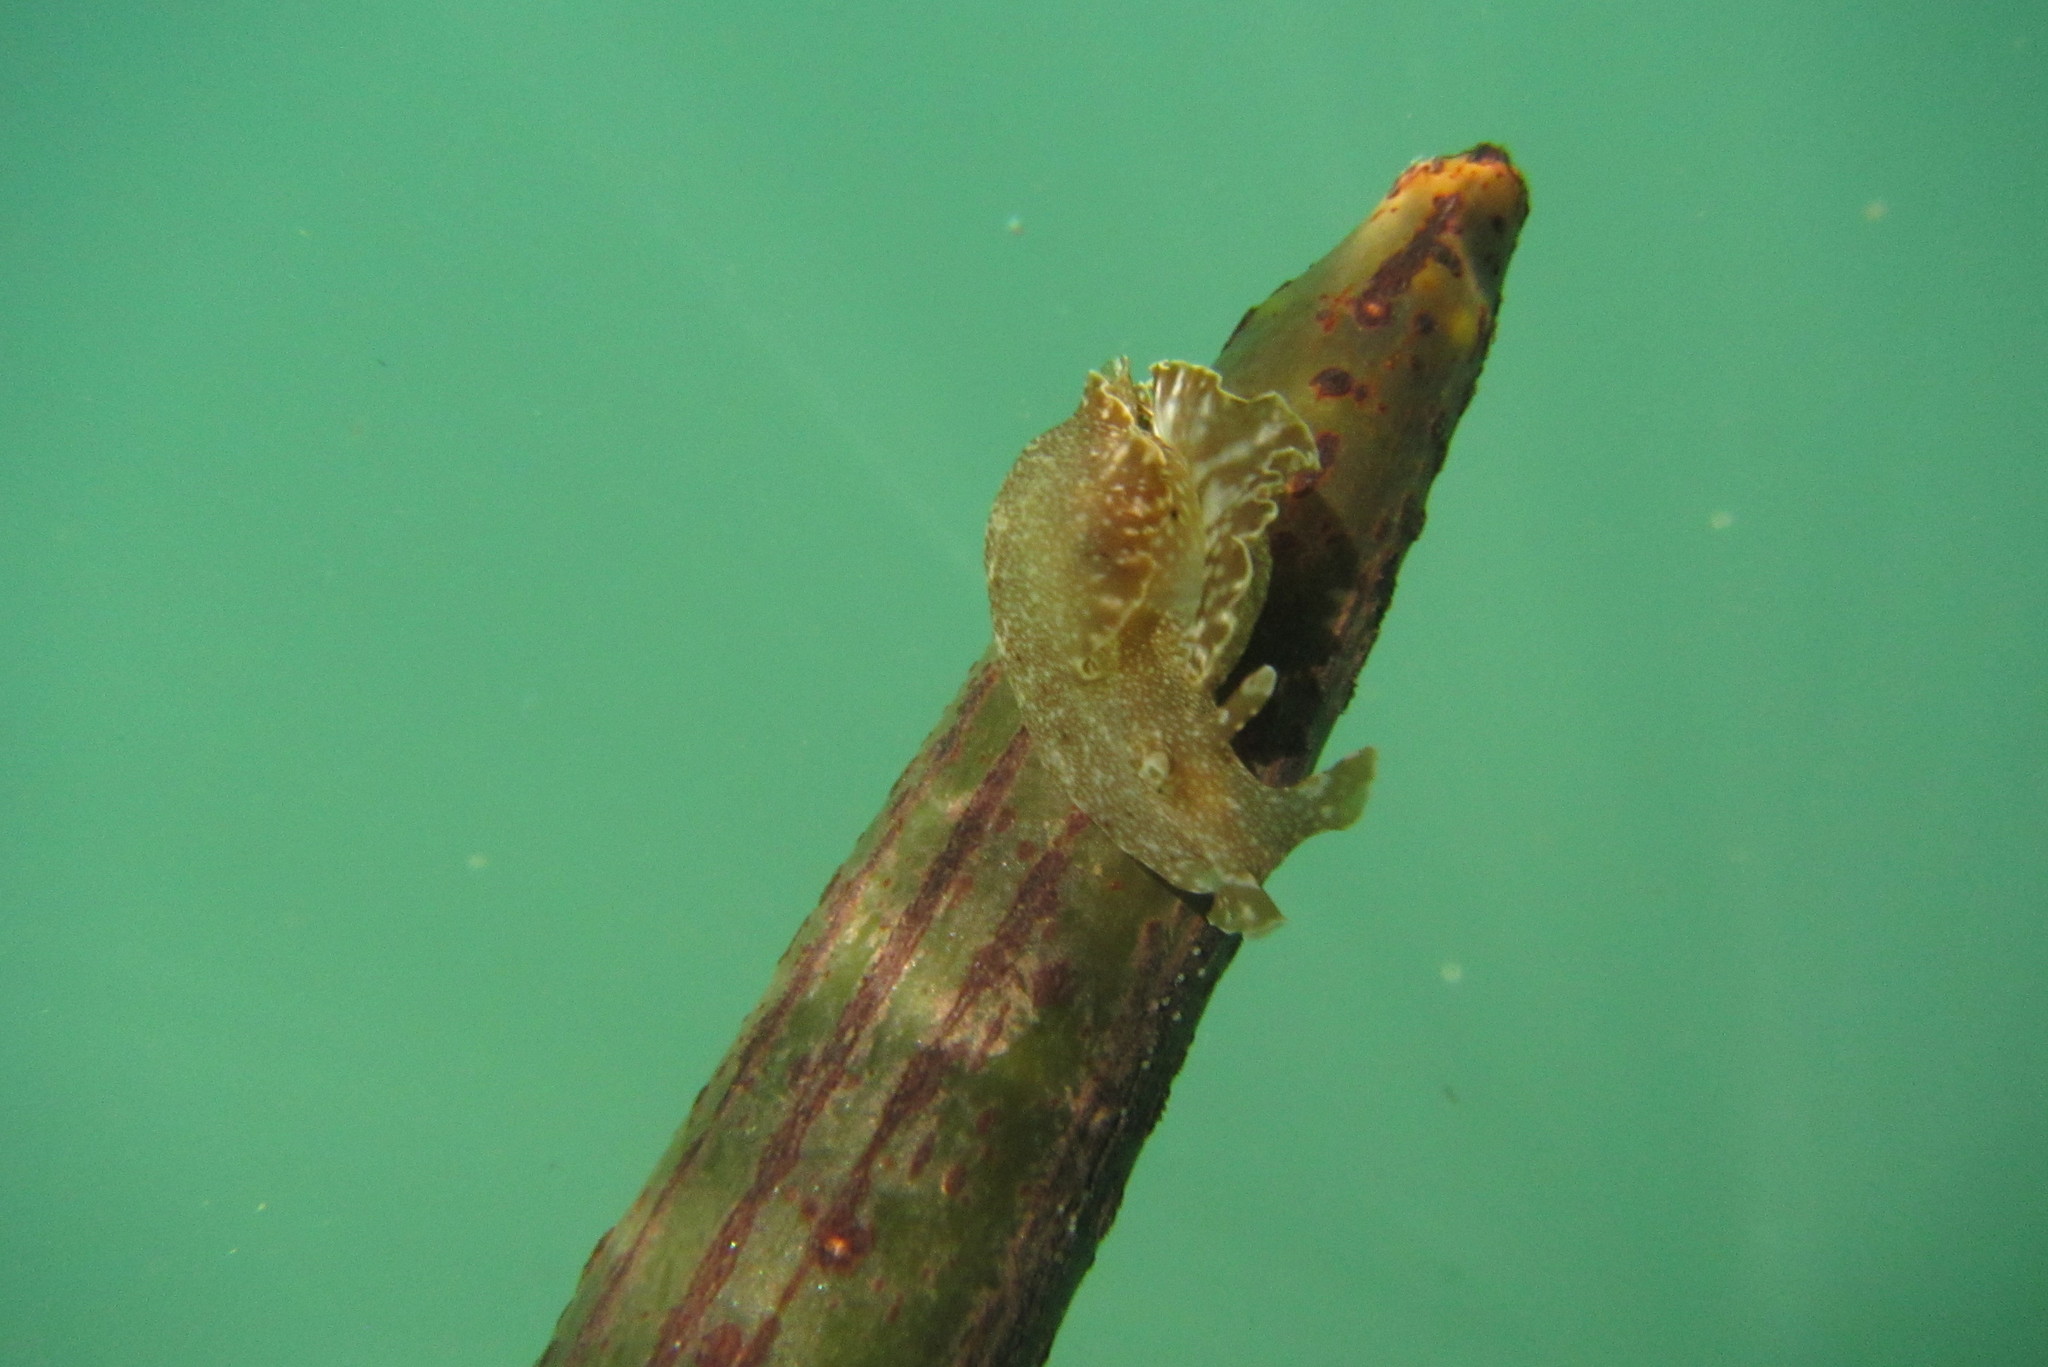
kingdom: Animalia
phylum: Mollusca
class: Gastropoda
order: Aplysiida
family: Aplysiidae
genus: Aplysia
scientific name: Aplysia reticulata
